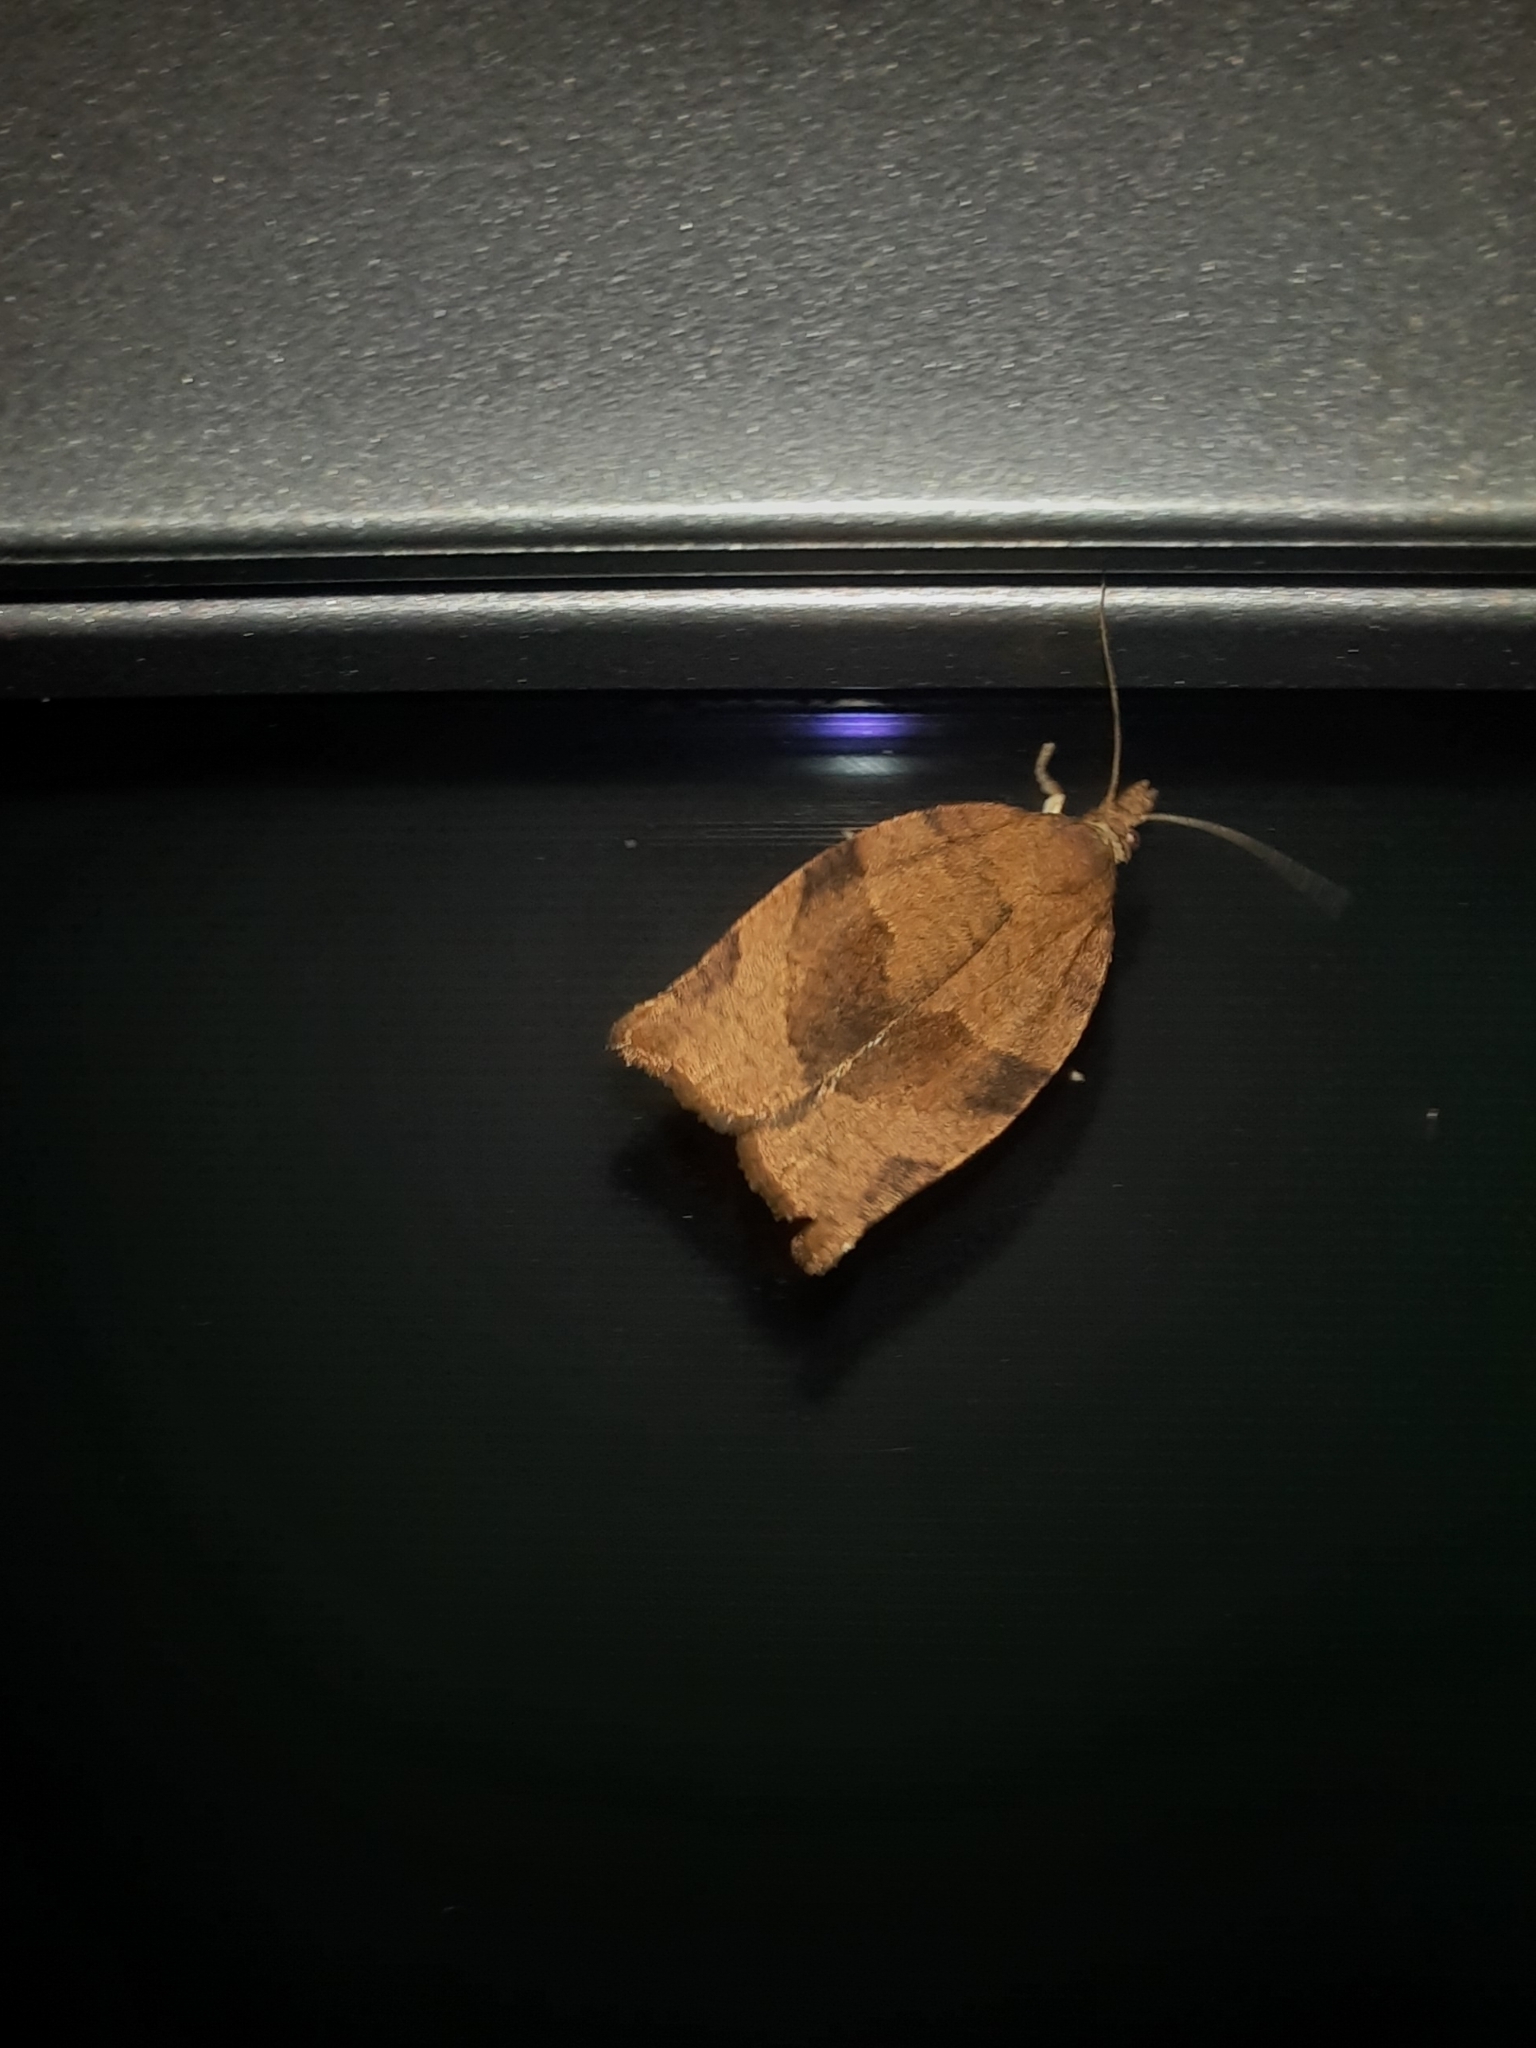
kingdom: Animalia
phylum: Arthropoda
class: Insecta
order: Lepidoptera
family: Tortricidae
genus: Pandemis
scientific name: Pandemis heparana
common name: Dark fruit-tree tortrix
